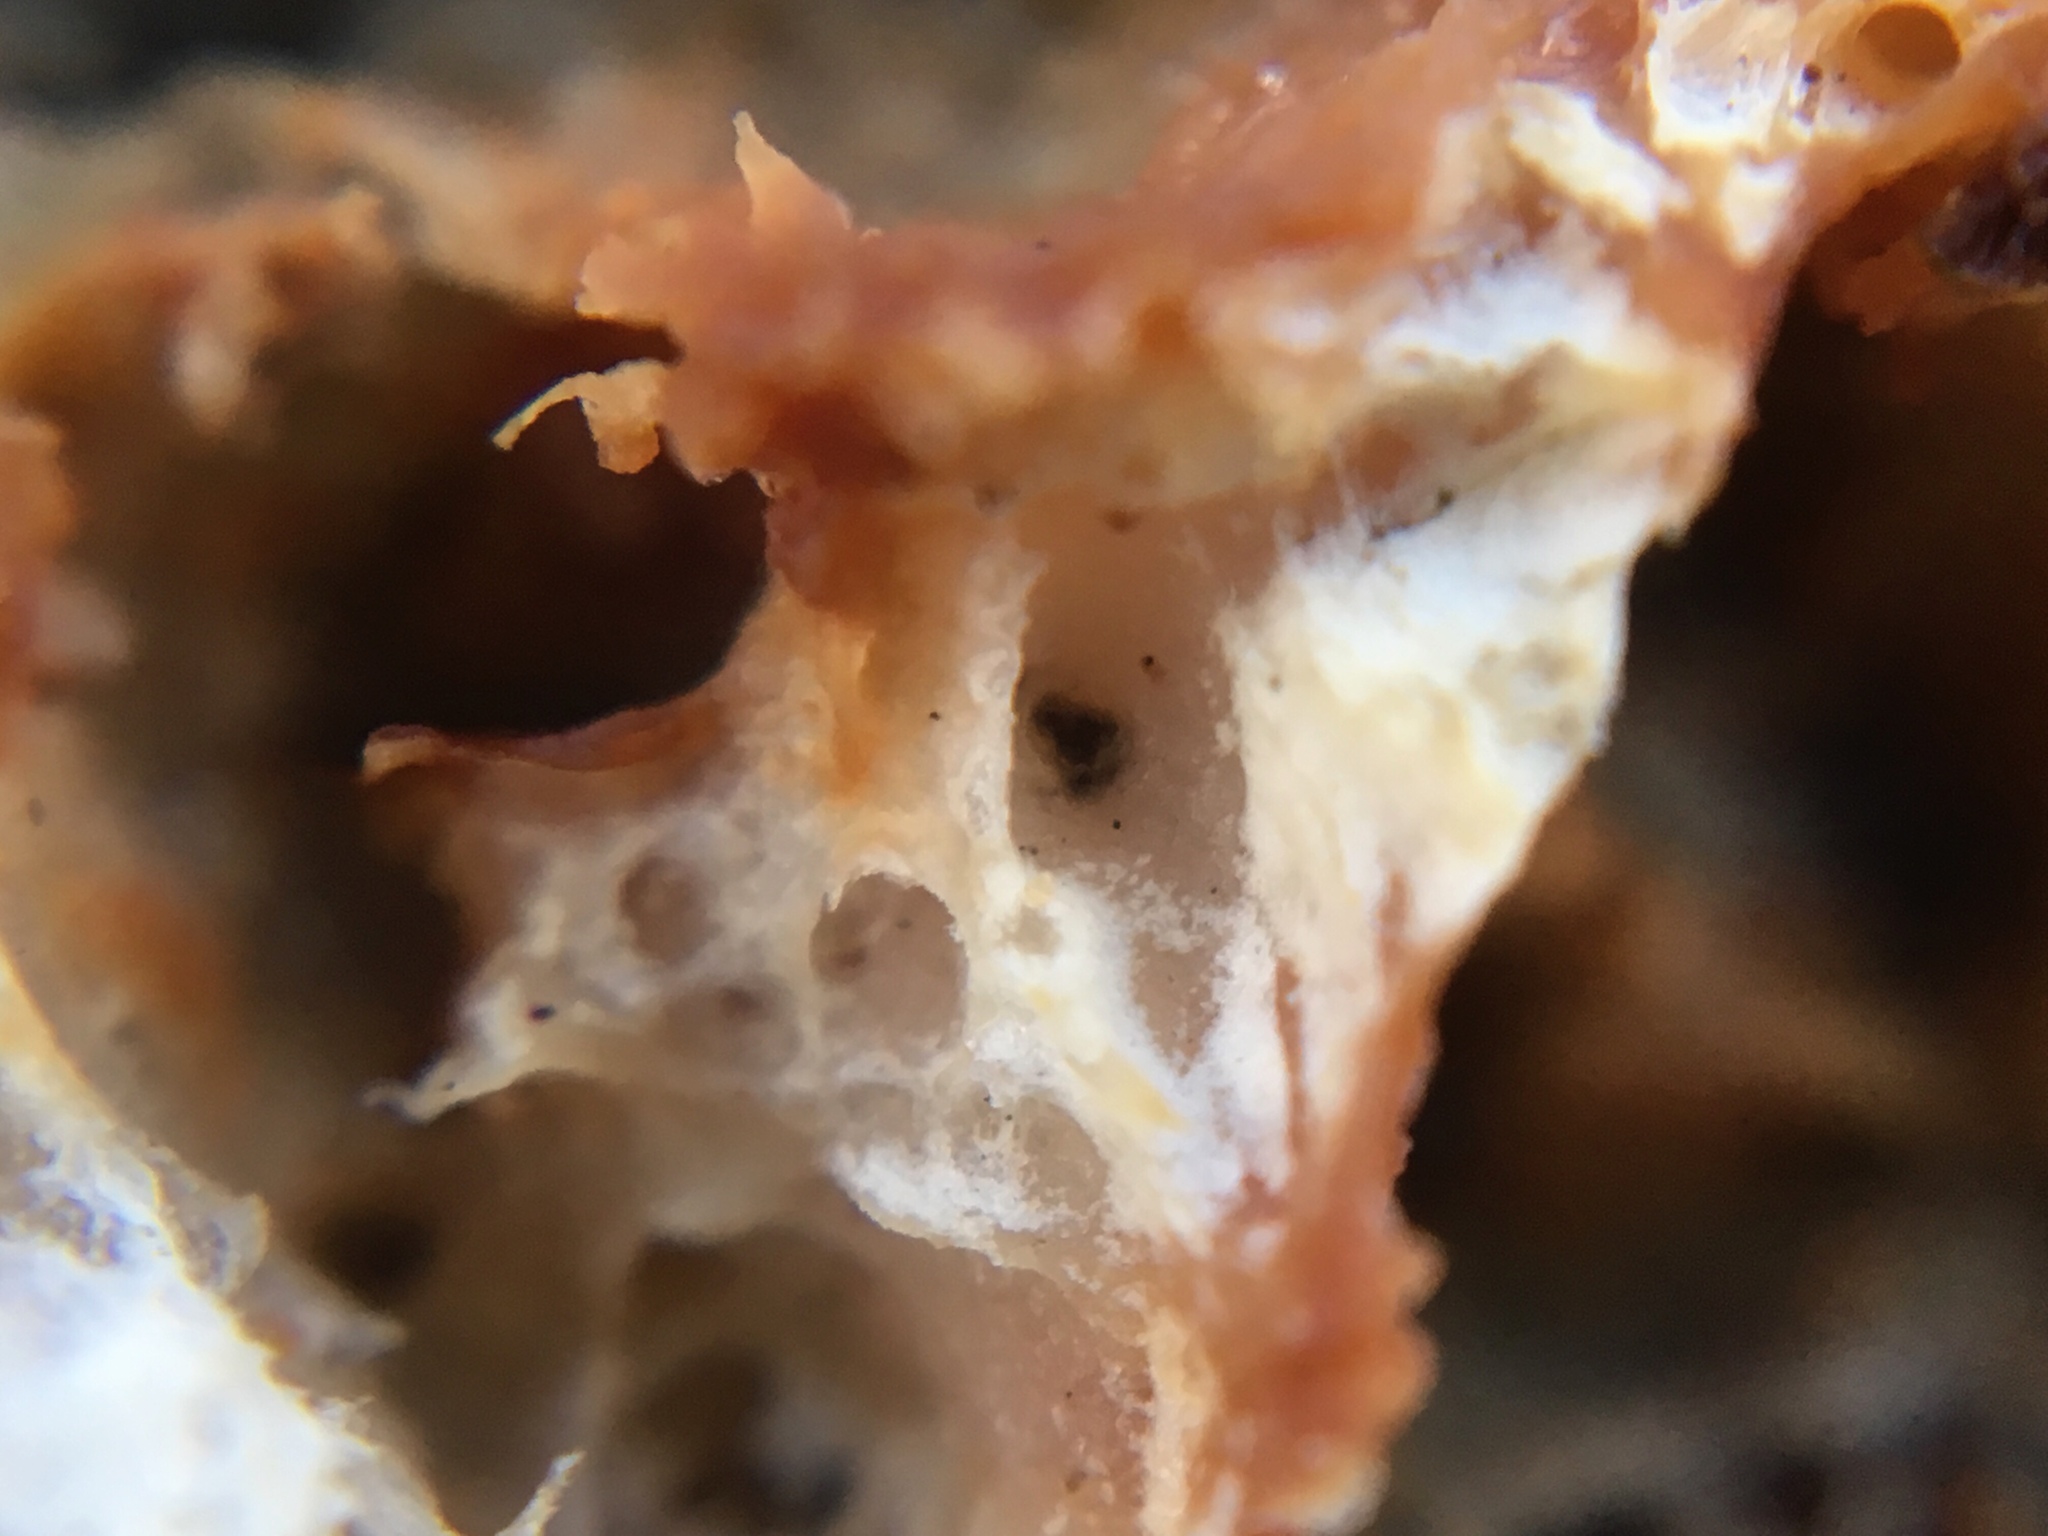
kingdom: Fungi
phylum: Basidiomycota
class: Agaricomycetes
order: Polyporales
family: Meruliaceae
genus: Phlebia
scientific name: Phlebia tremellosa
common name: Jelly rot
